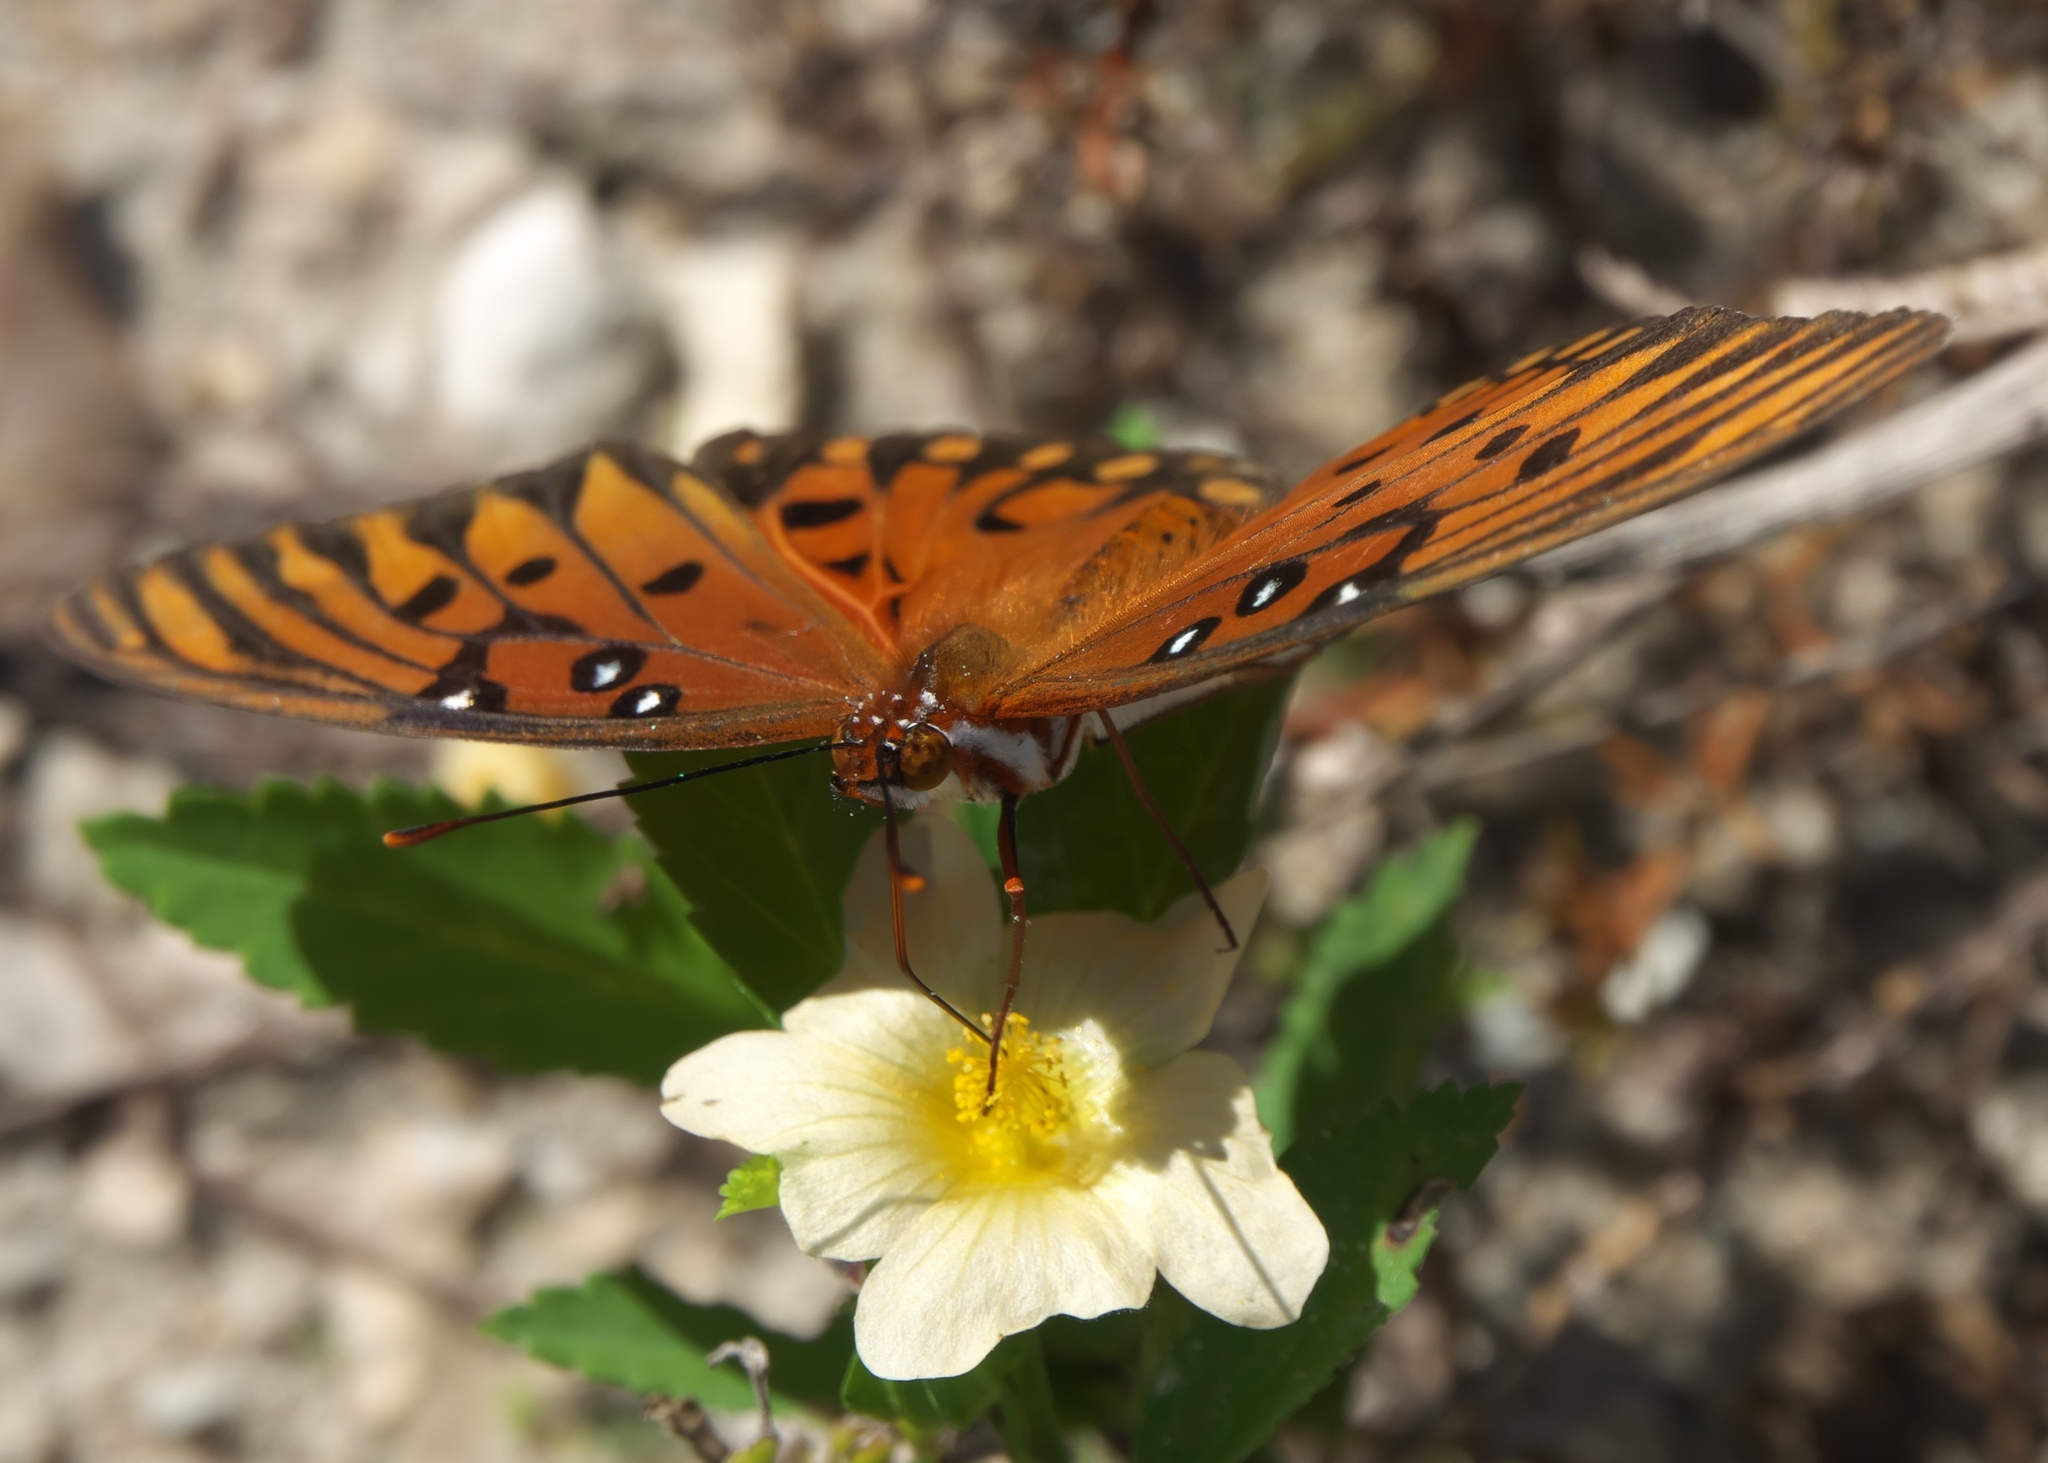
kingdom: Animalia
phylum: Arthropoda
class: Insecta
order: Lepidoptera
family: Nymphalidae
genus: Dione
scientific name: Dione vanillae
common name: Gulf fritillary
